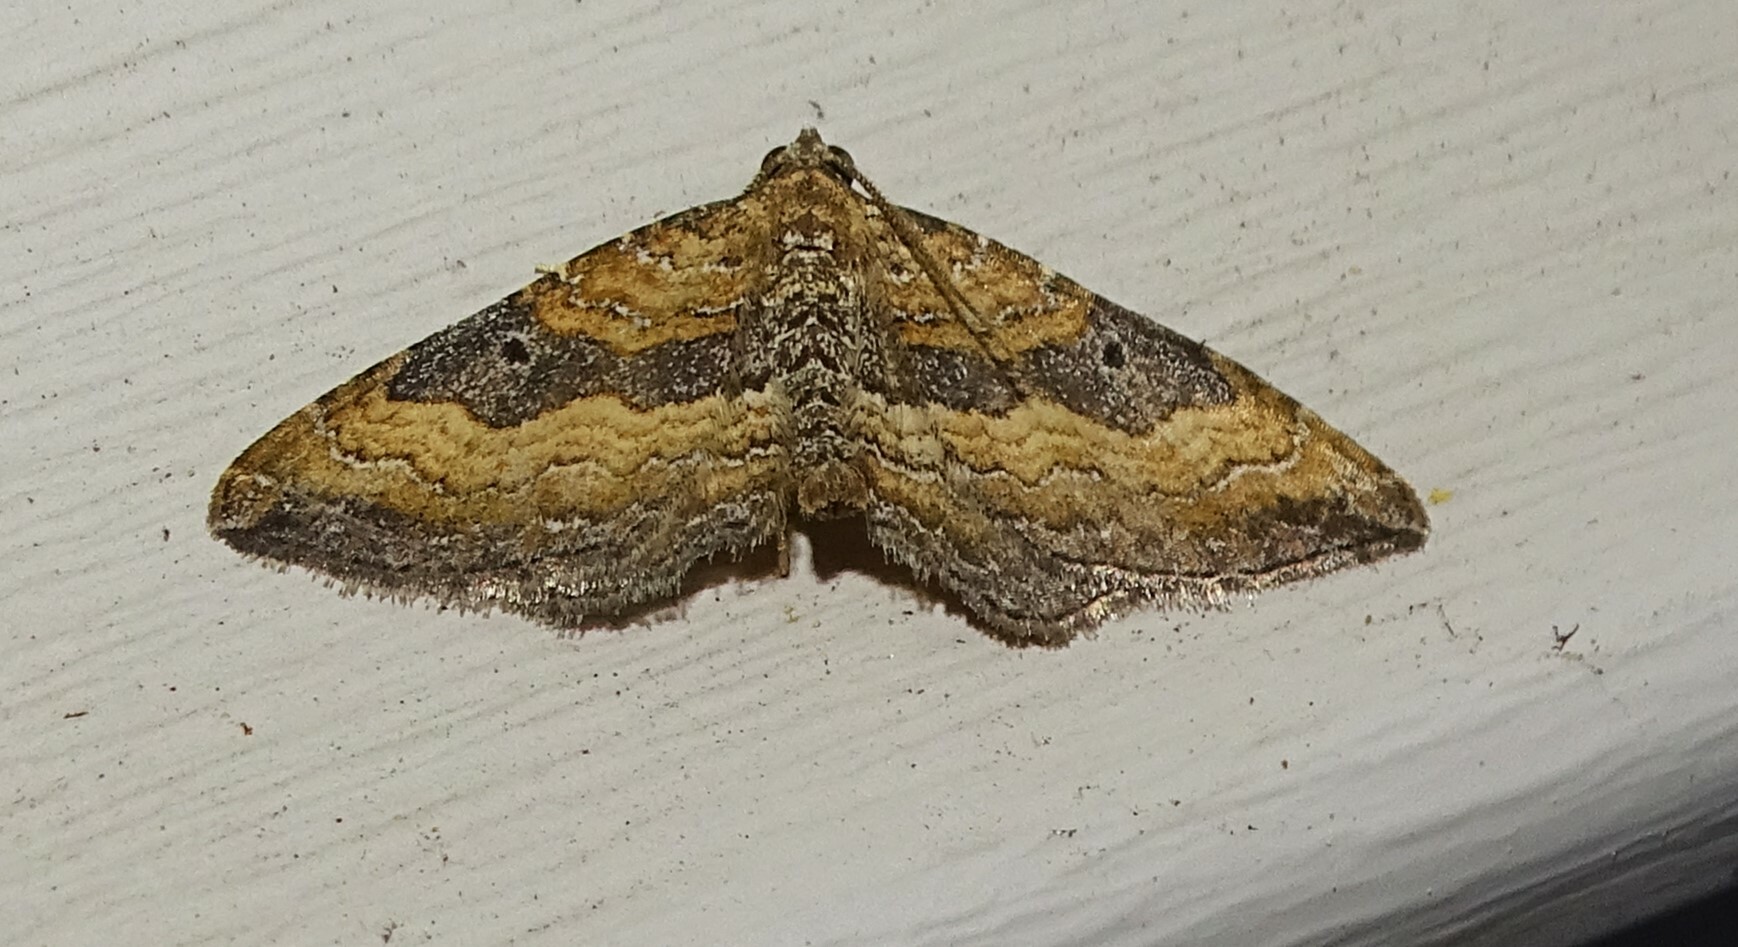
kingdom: Animalia
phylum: Arthropoda
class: Insecta
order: Lepidoptera
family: Geometridae
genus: Orthonama
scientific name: Orthonama obstipata
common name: The gem
